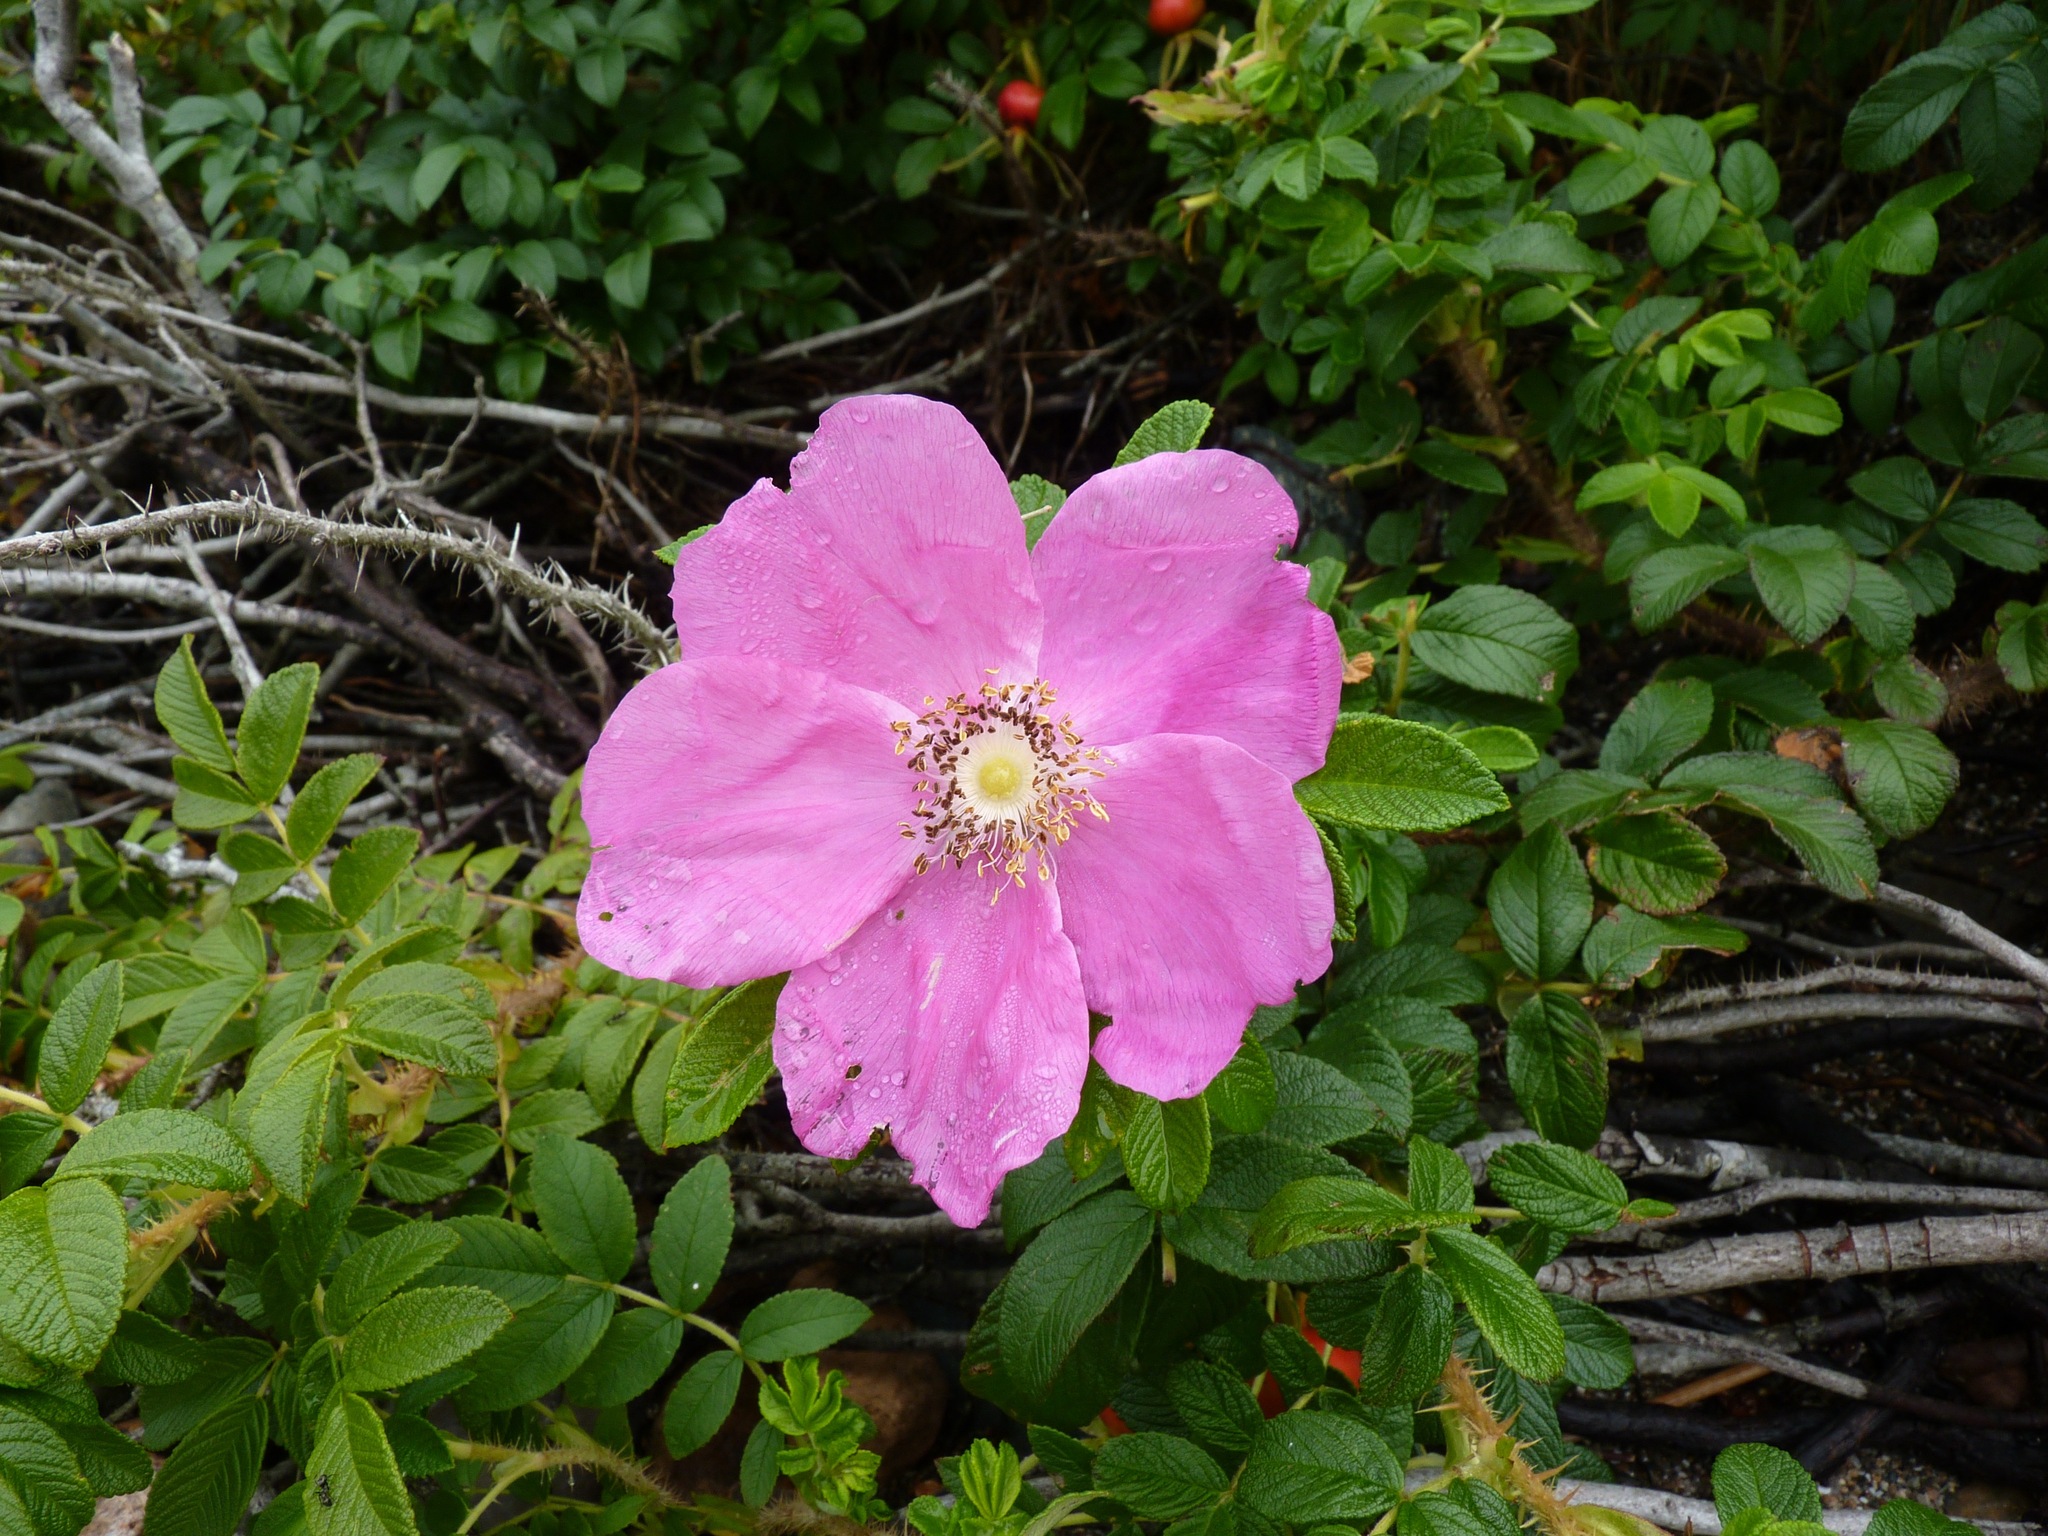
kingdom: Plantae
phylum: Tracheophyta
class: Magnoliopsida
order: Rosales
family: Rosaceae
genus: Rosa
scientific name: Rosa rugosa
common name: Japanese rose
